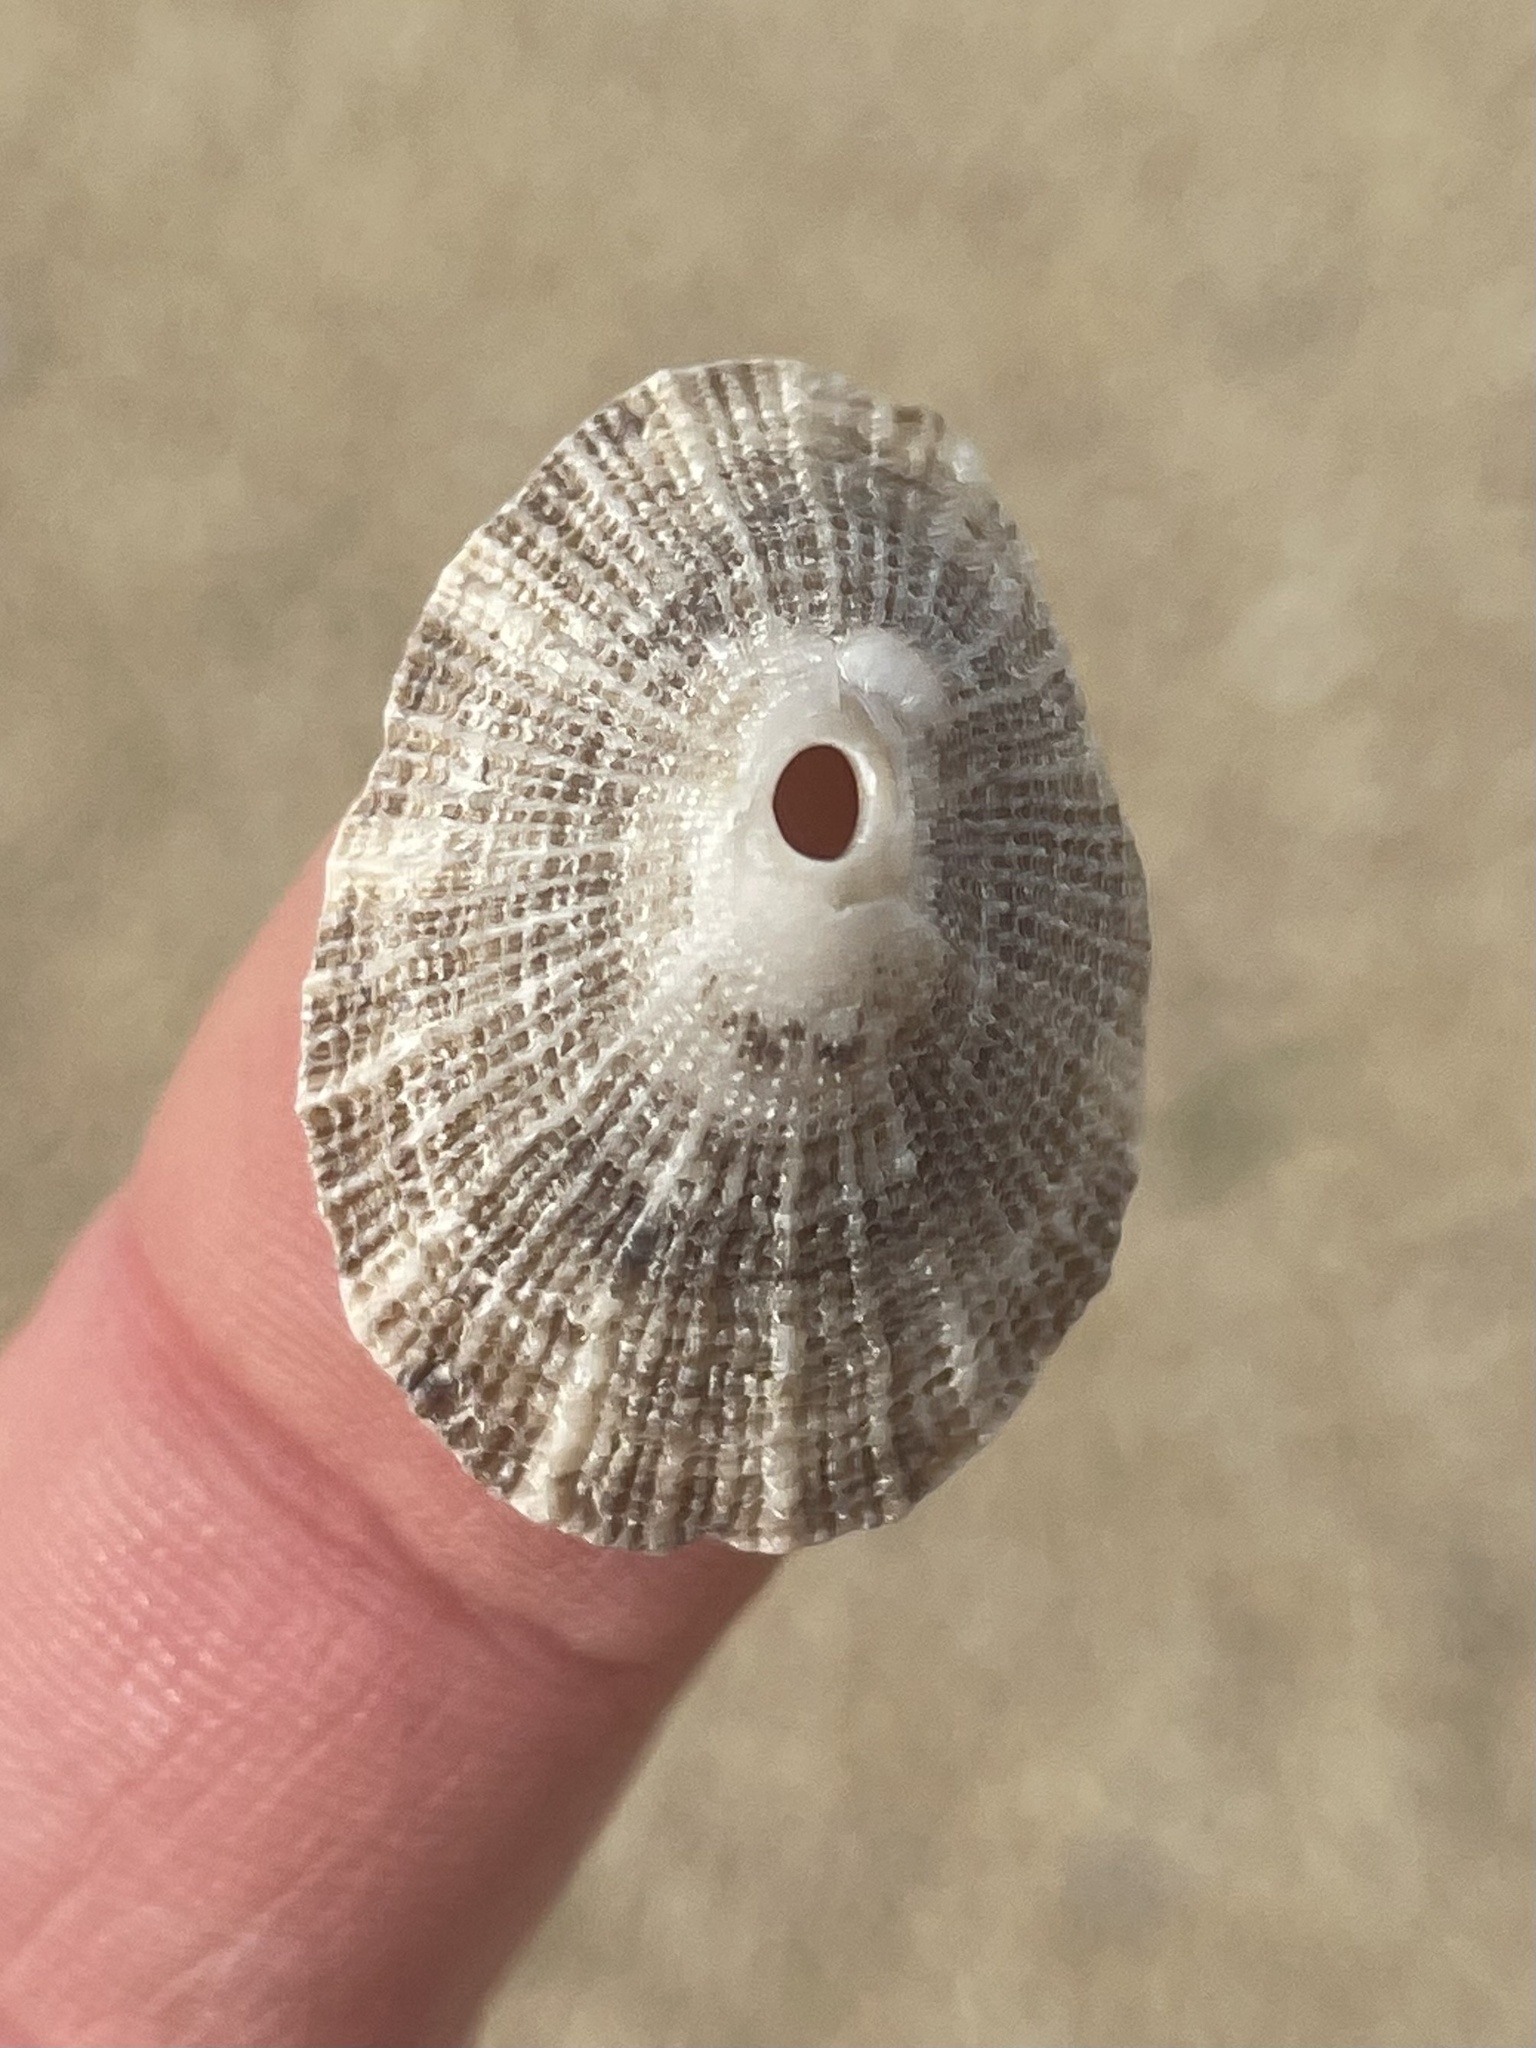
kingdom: Animalia
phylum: Mollusca
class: Gastropoda
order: Lepetellida
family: Fissurellidae
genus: Diodora
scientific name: Diodora aspera
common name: Rough keyhole limpet
